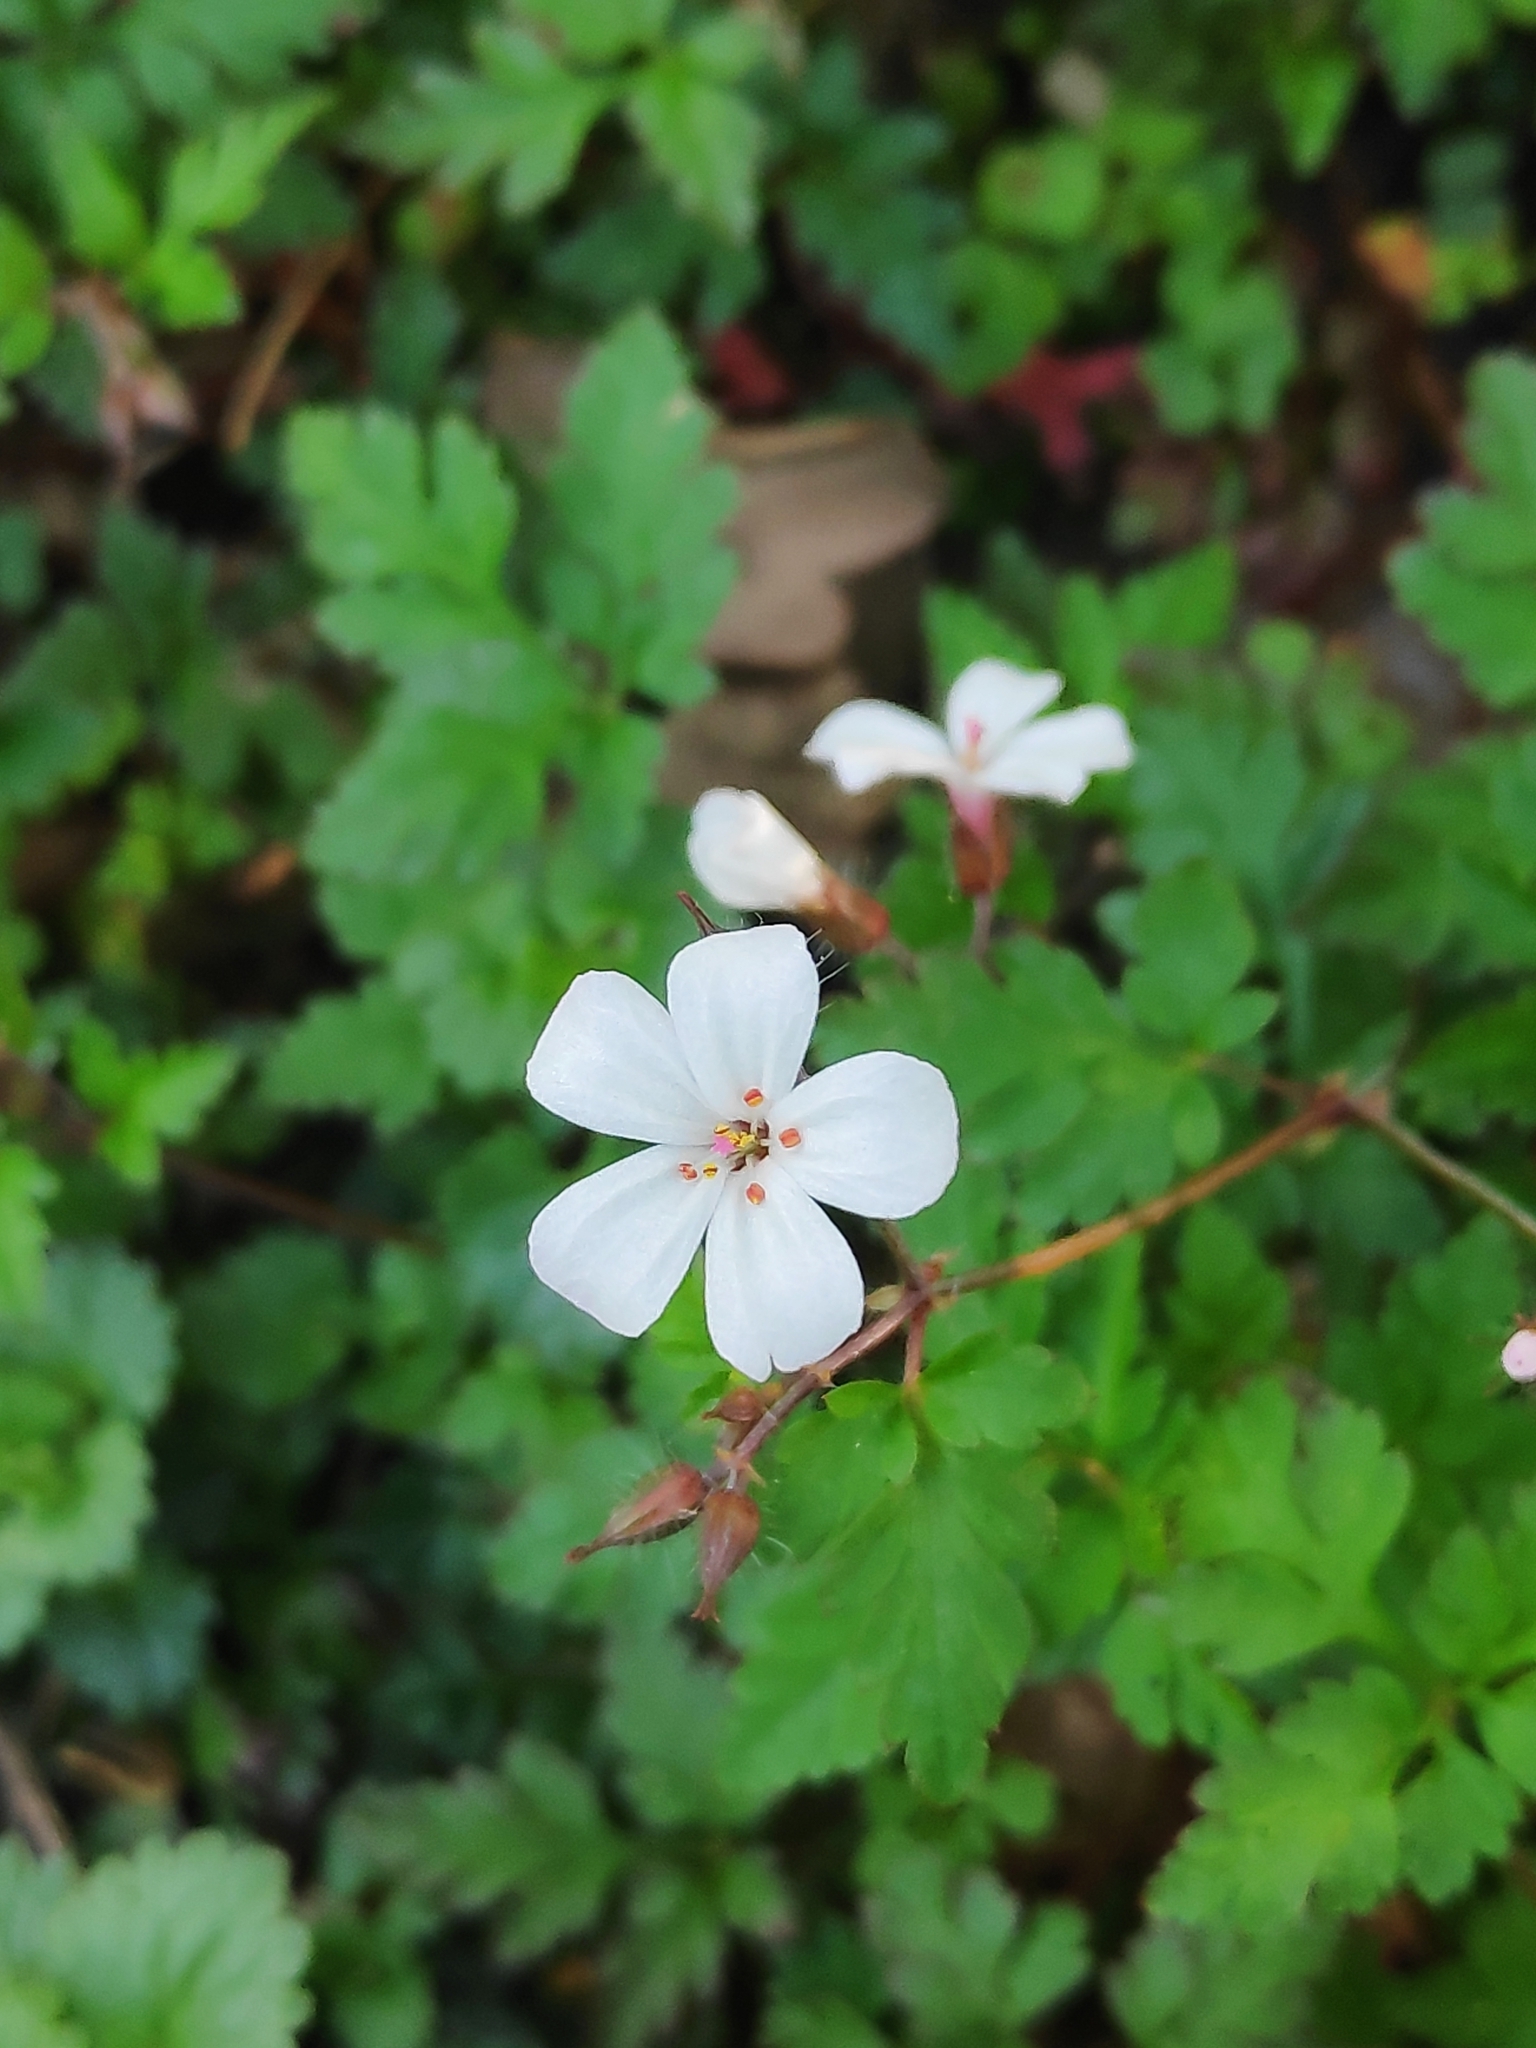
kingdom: Plantae
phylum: Tracheophyta
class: Magnoliopsida
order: Geraniales
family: Geraniaceae
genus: Geranium
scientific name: Geranium robertianum
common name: Herb-robert
